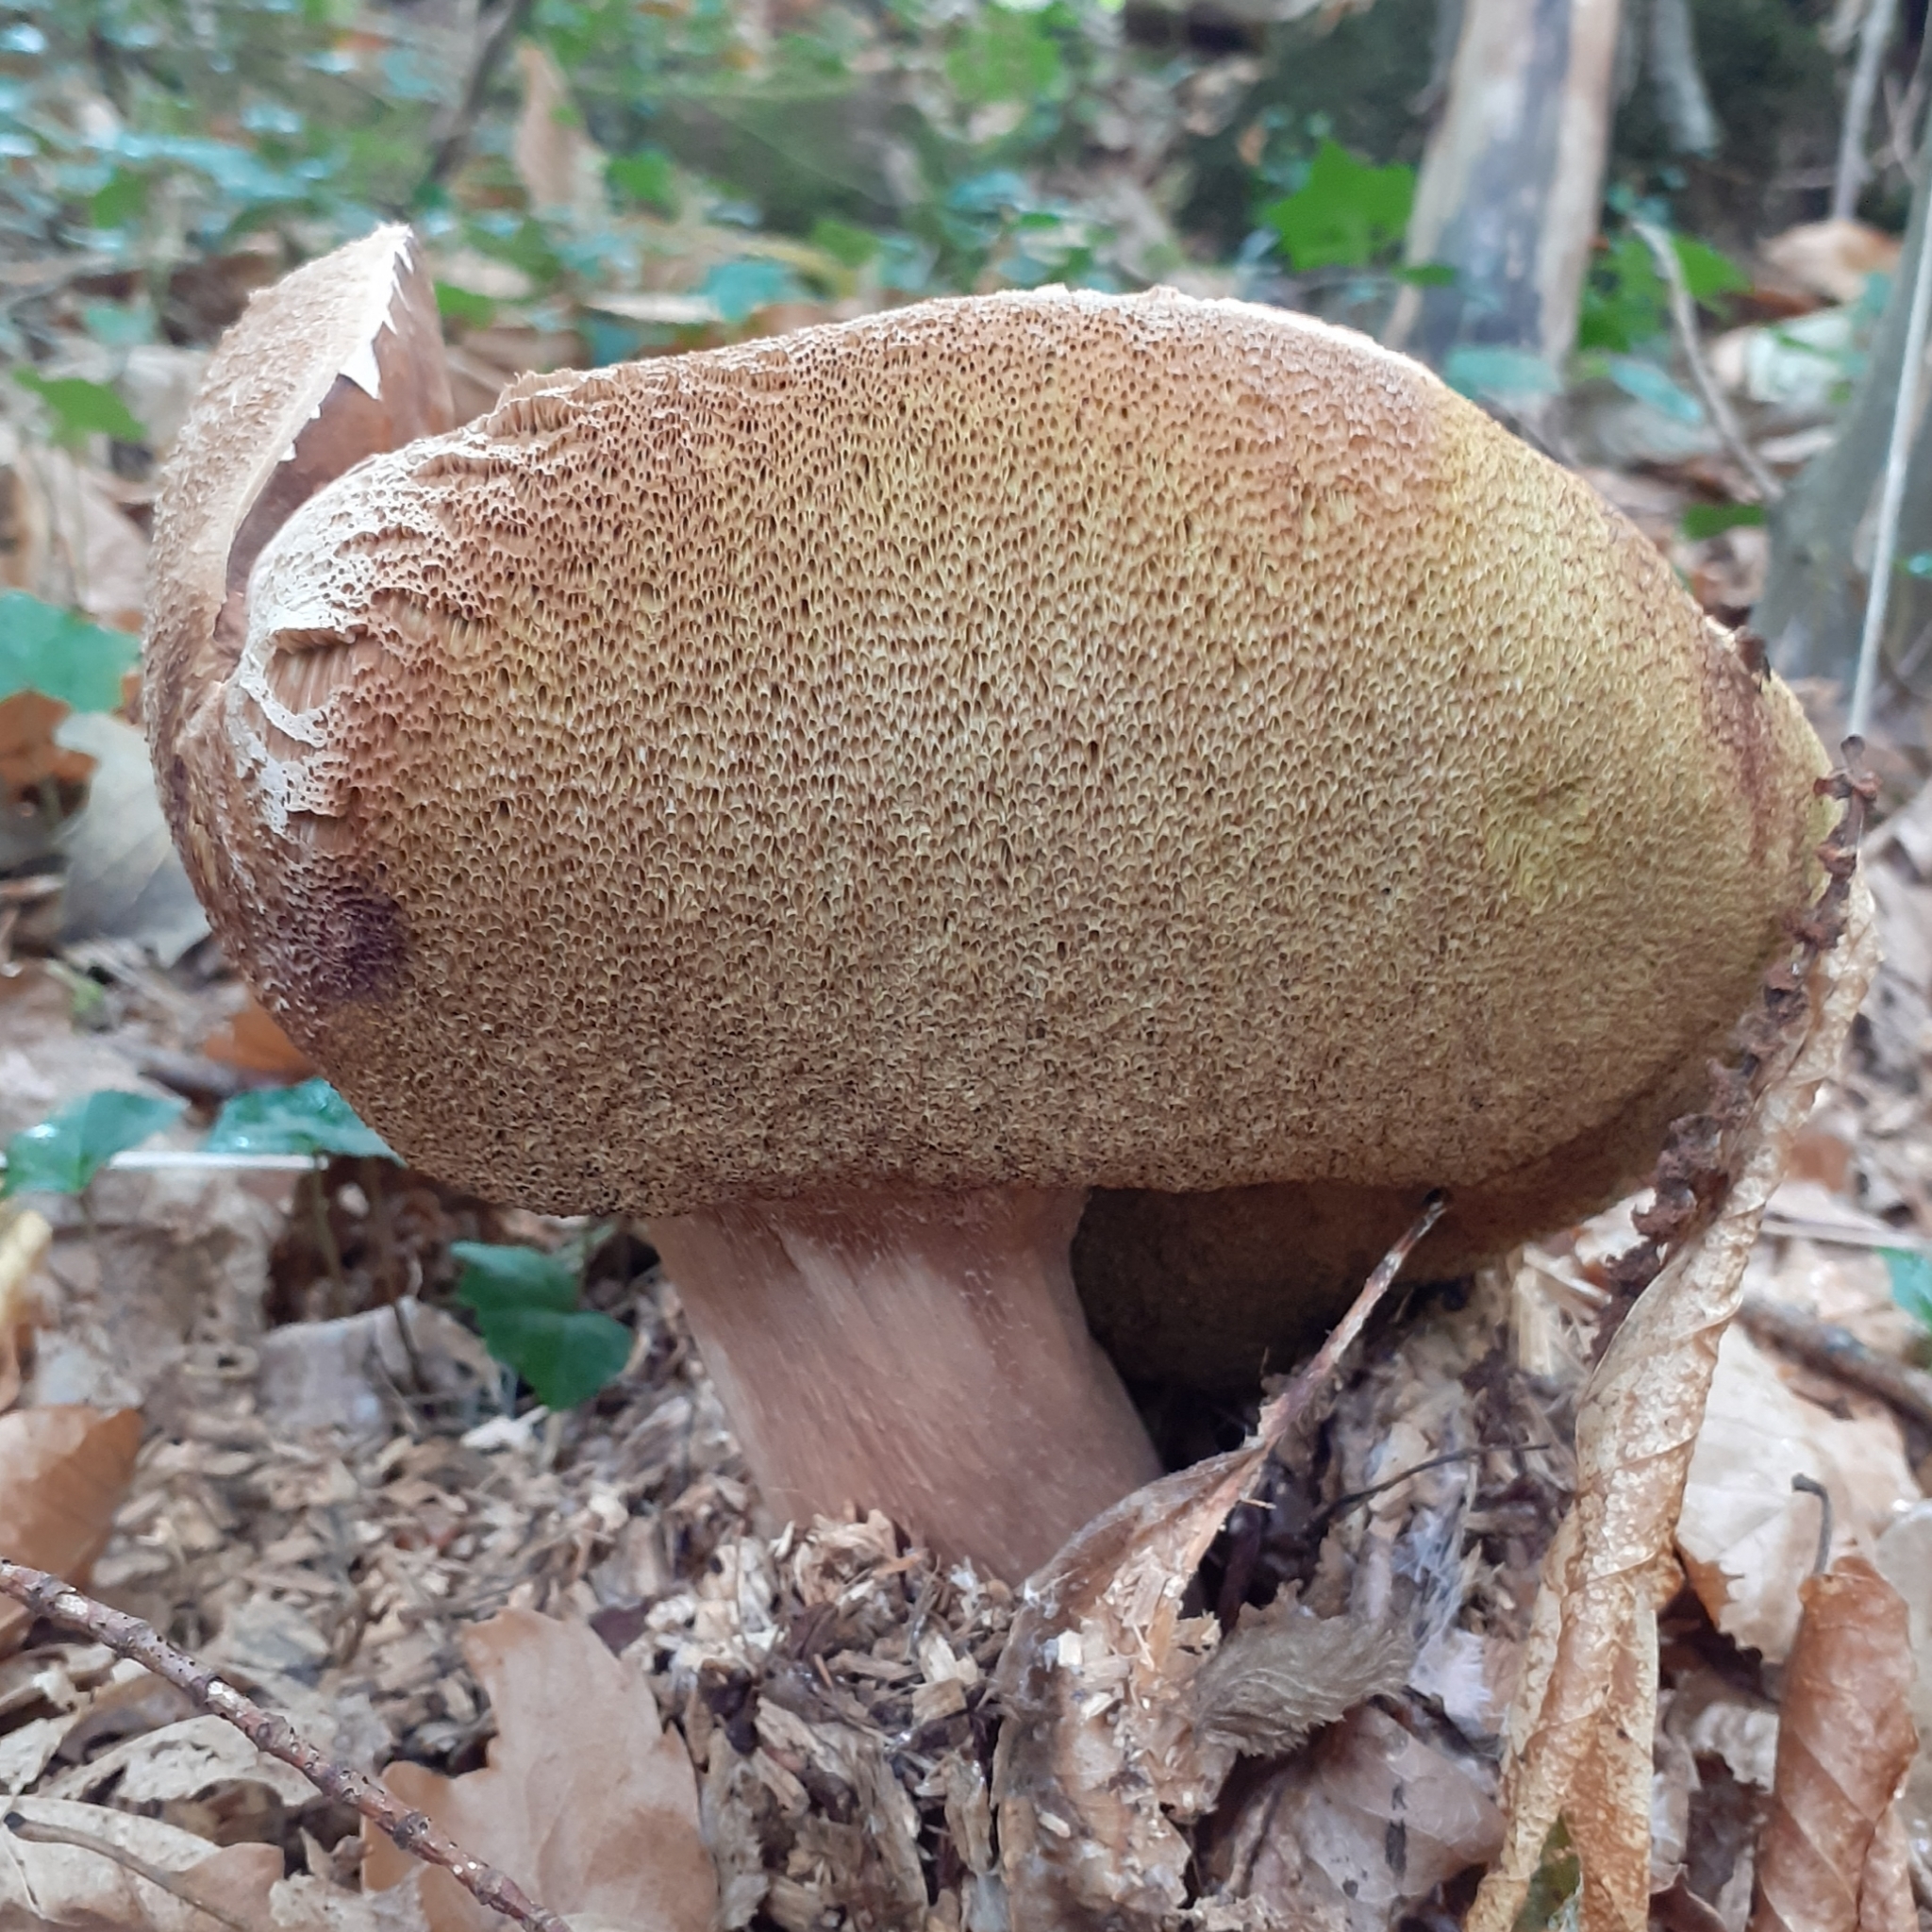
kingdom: Fungi
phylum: Basidiomycota
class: Agaricomycetes
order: Boletales
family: Boletaceae
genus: Boletus
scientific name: Boletus reticulatus
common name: Summer bolete
